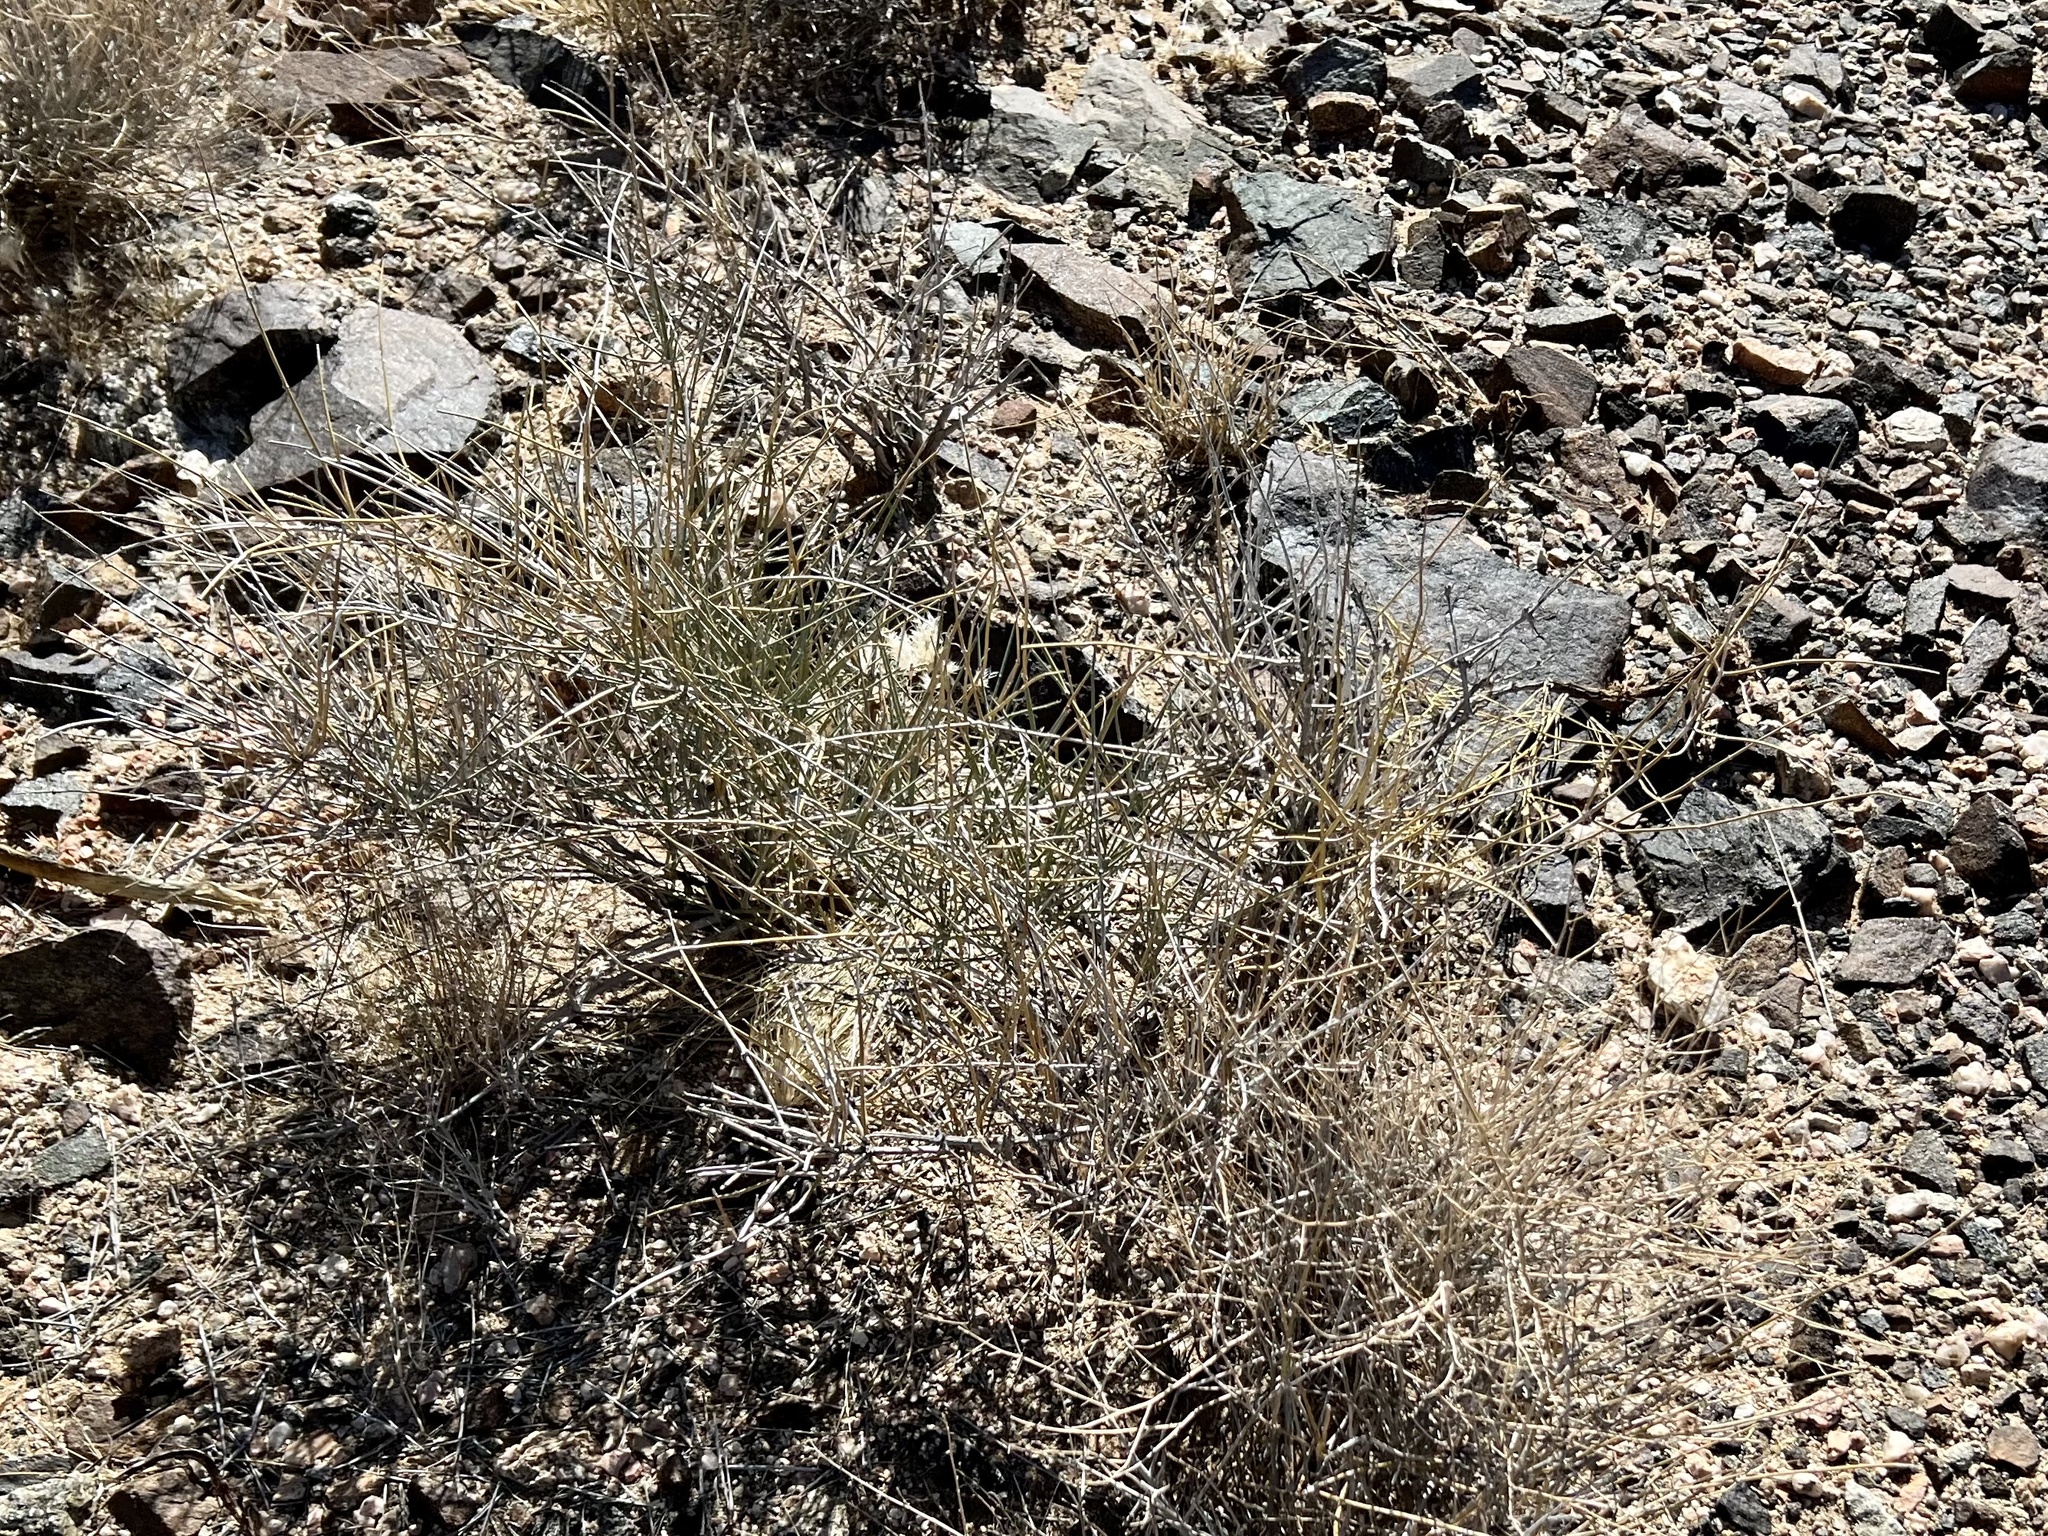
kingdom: Plantae
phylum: Tracheophyta
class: Gnetopsida
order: Ephedrales
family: Ephedraceae
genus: Ephedra
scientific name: Ephedra nevadensis
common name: Gray ephedra
